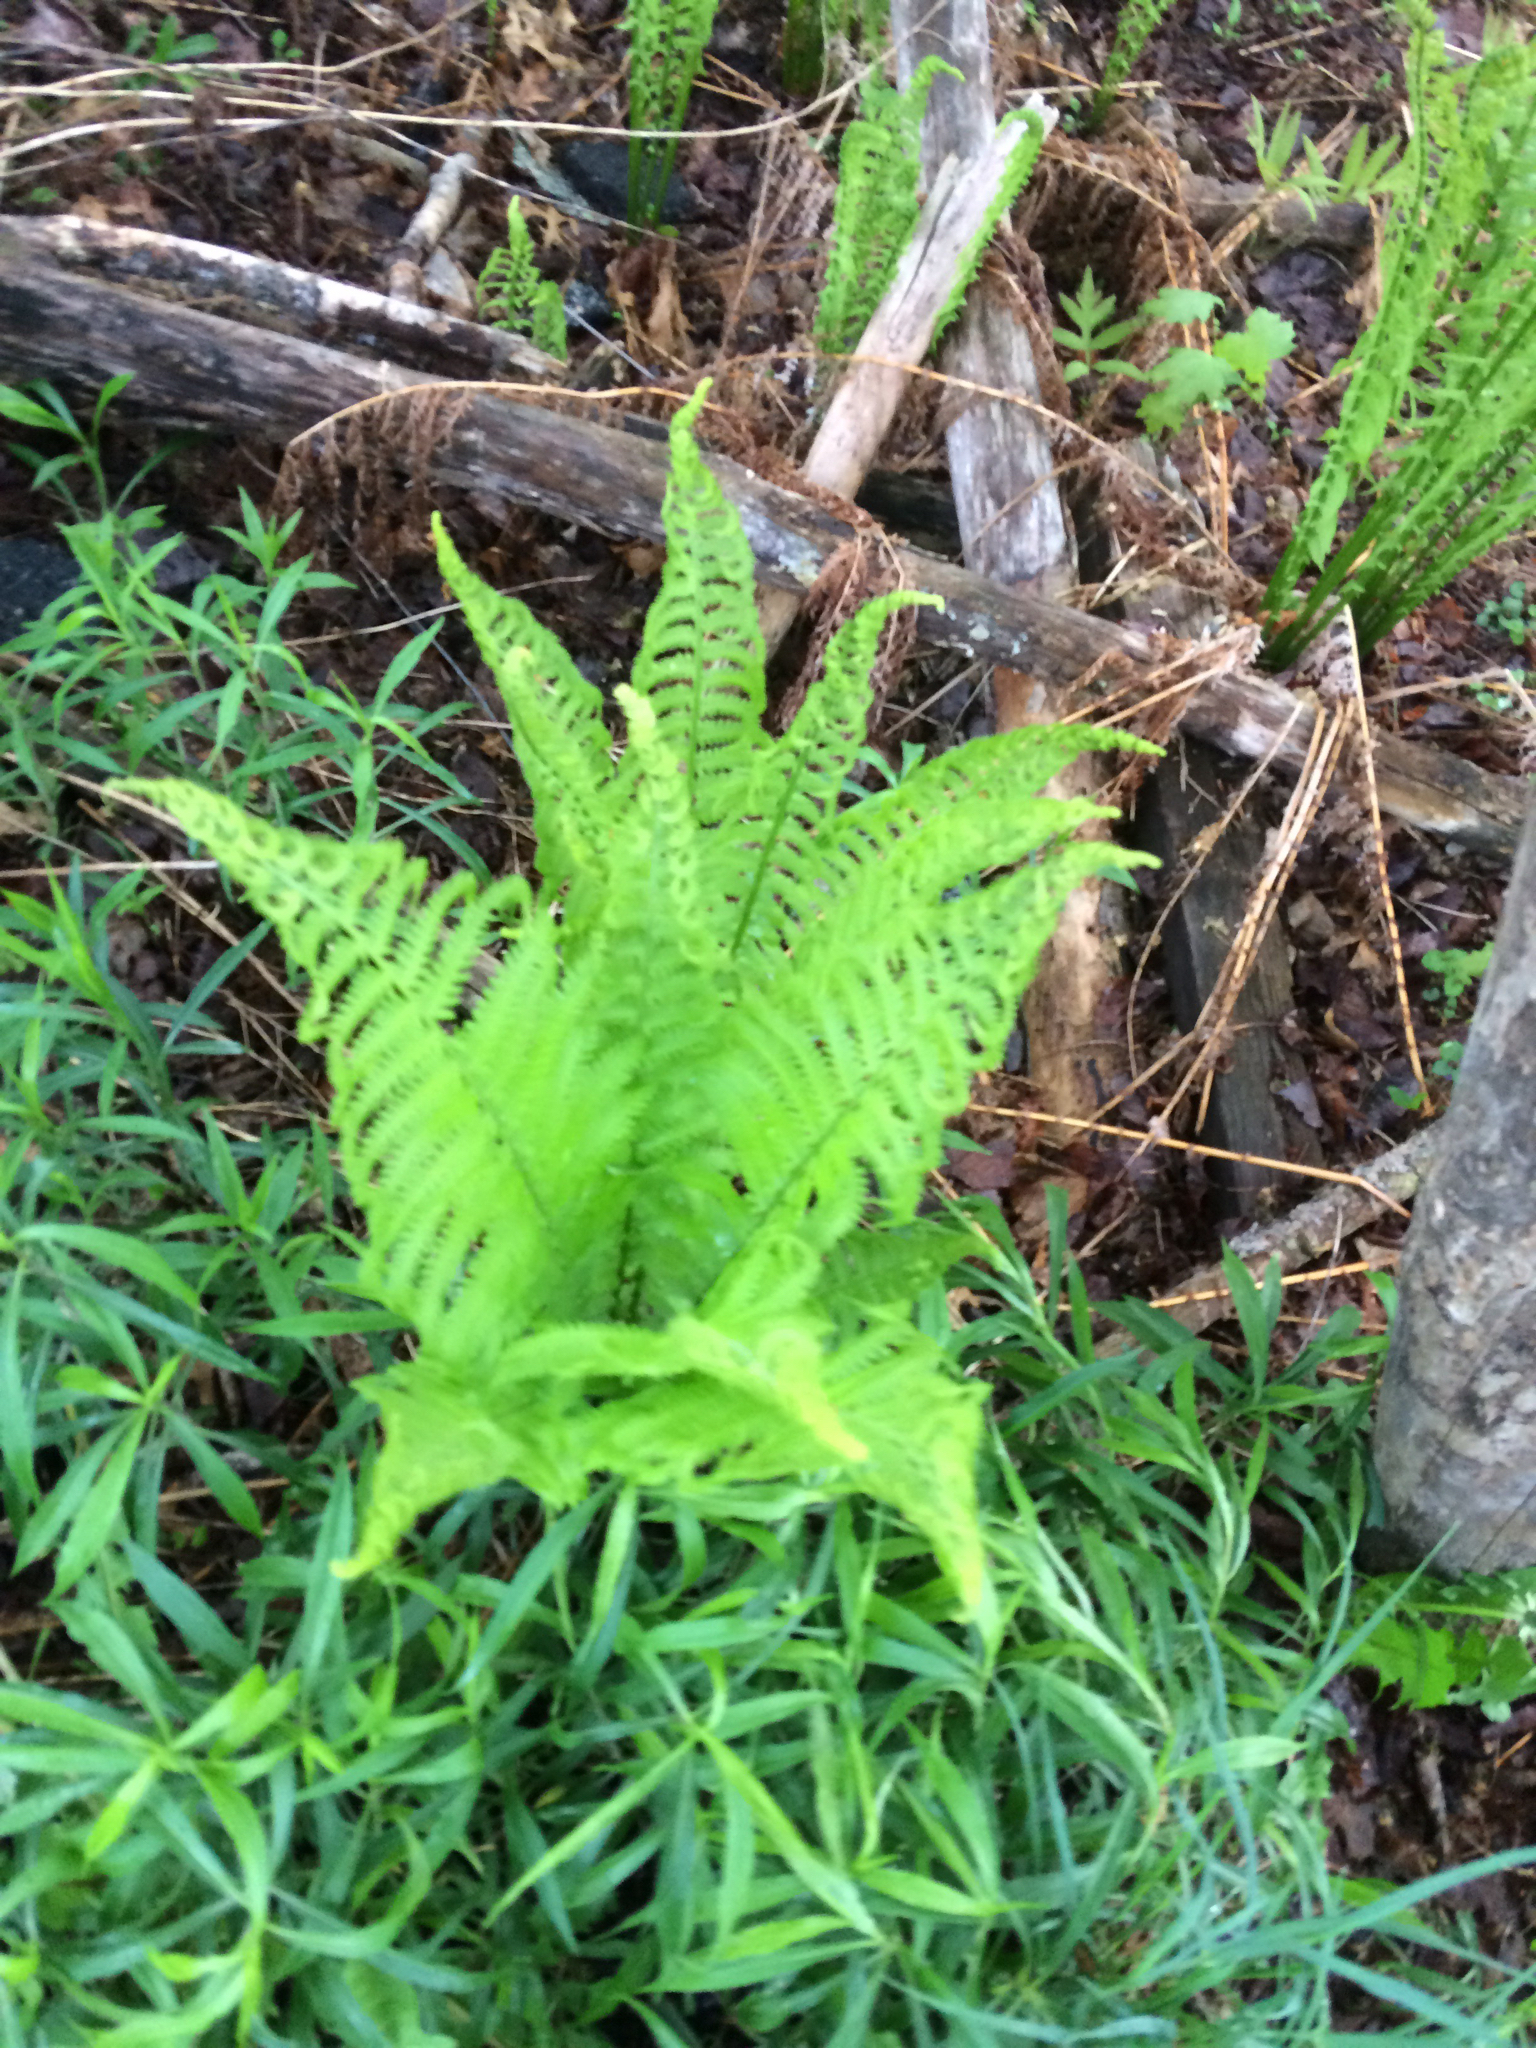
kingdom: Plantae
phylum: Tracheophyta
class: Polypodiopsida
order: Polypodiales
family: Onocleaceae
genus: Matteuccia
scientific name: Matteuccia struthiopteris
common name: Ostrich fern
